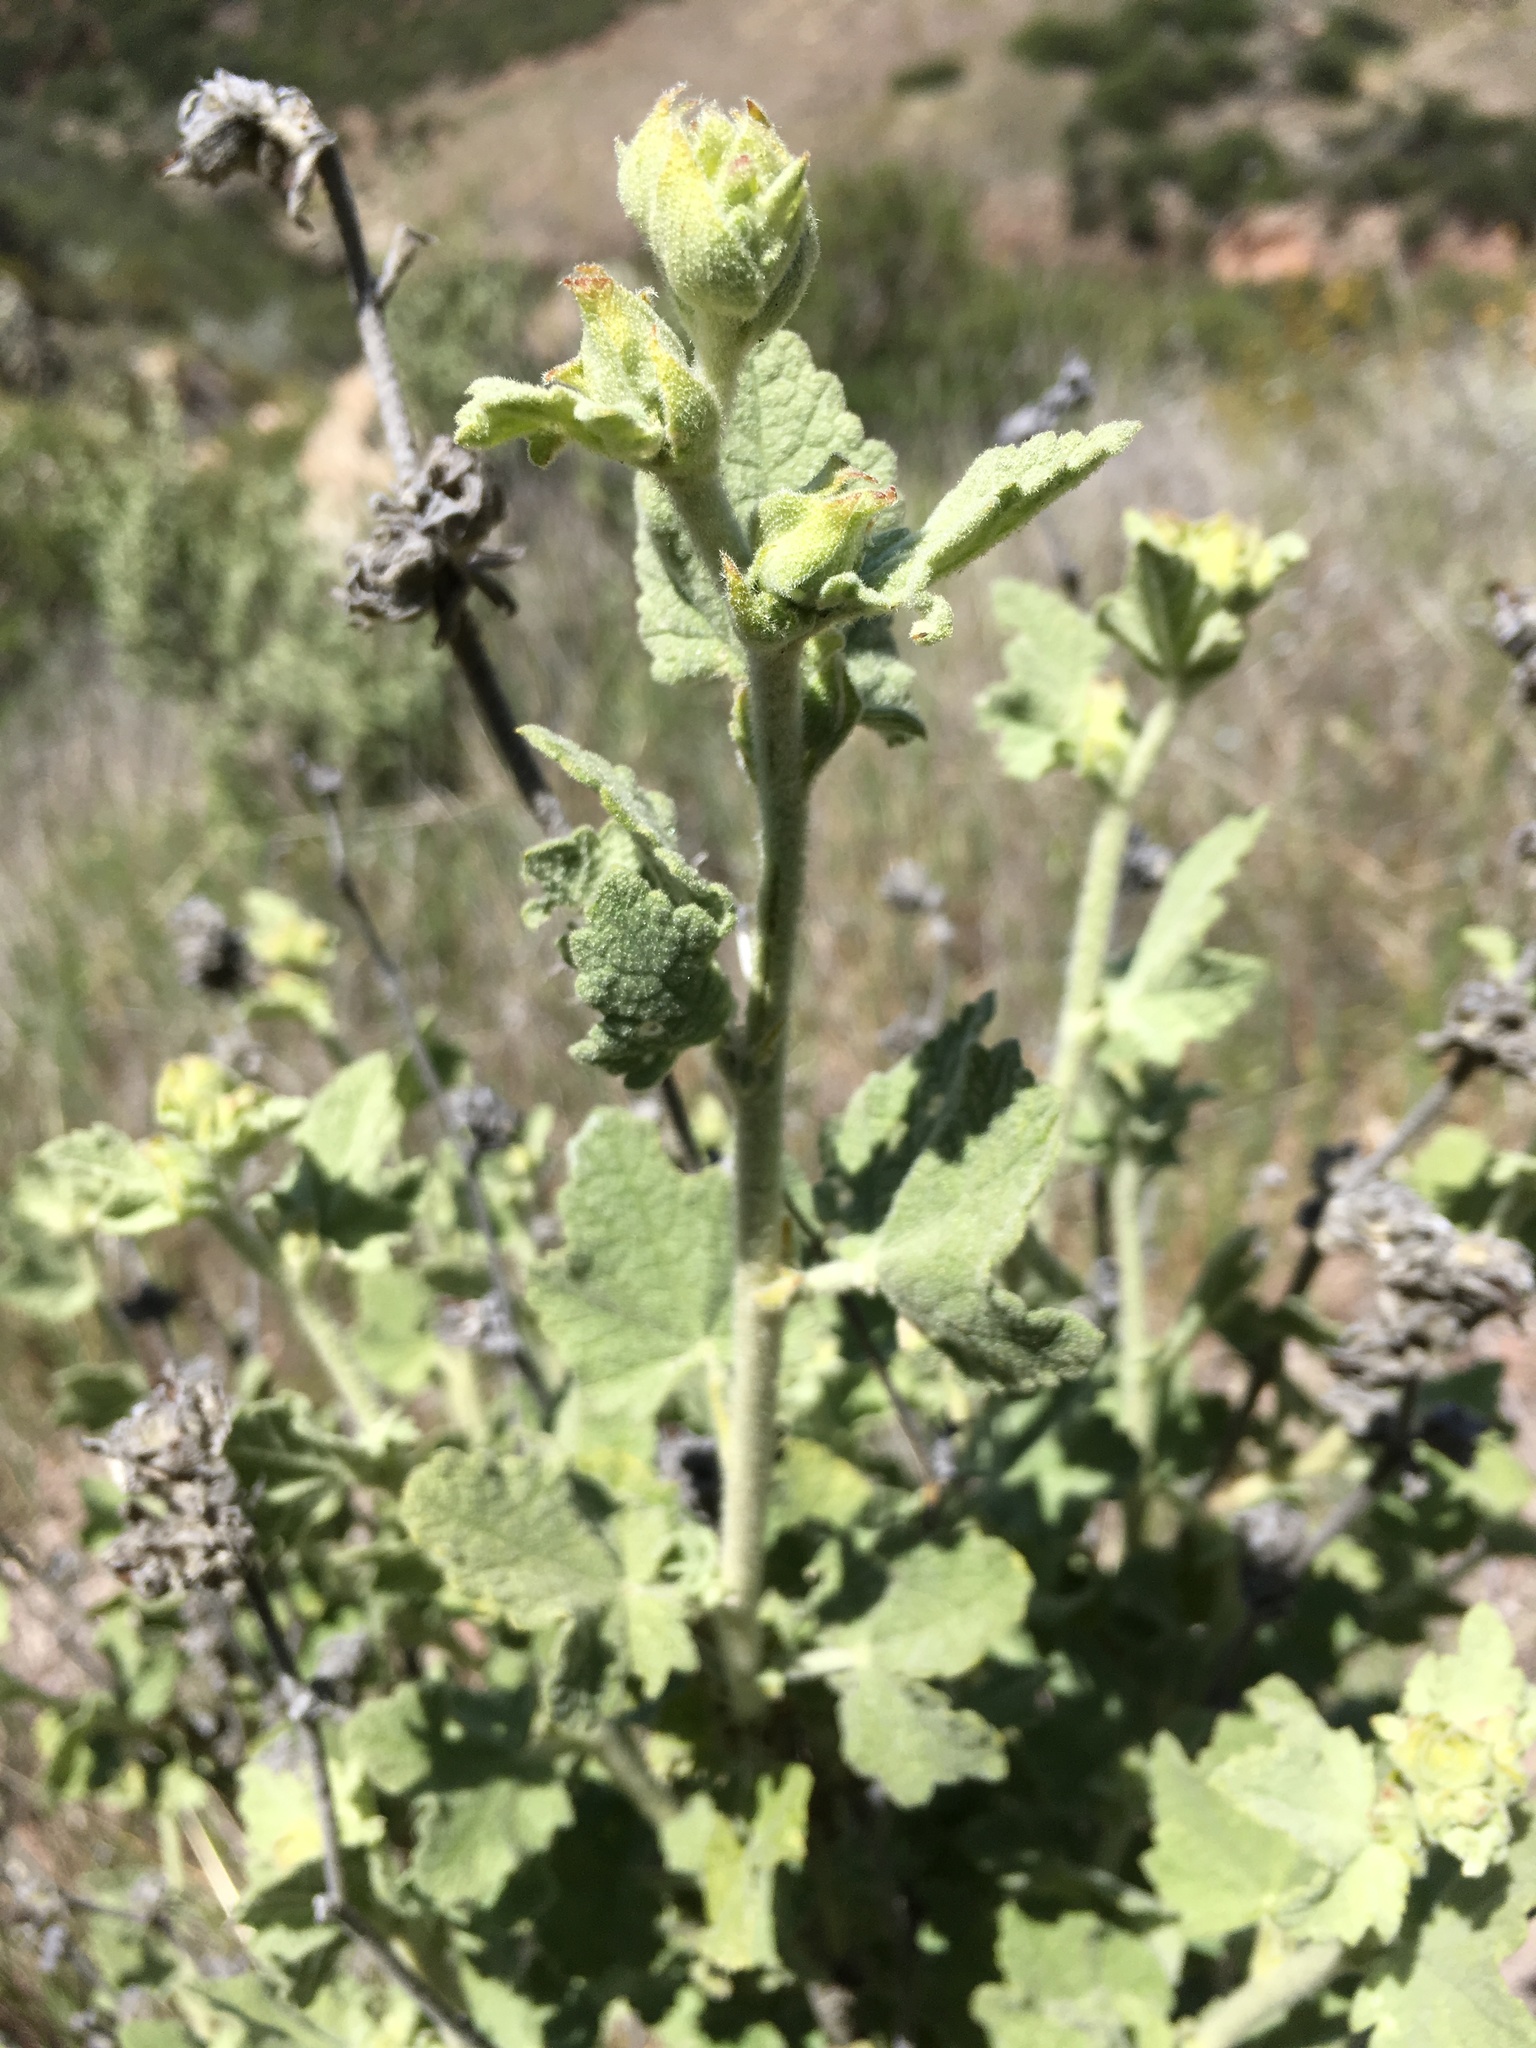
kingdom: Plantae
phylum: Tracheophyta
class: Magnoliopsida
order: Malvales
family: Malvaceae
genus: Malacothamnus
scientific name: Malacothamnus aboriginum
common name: Indian valley bush-mallow
